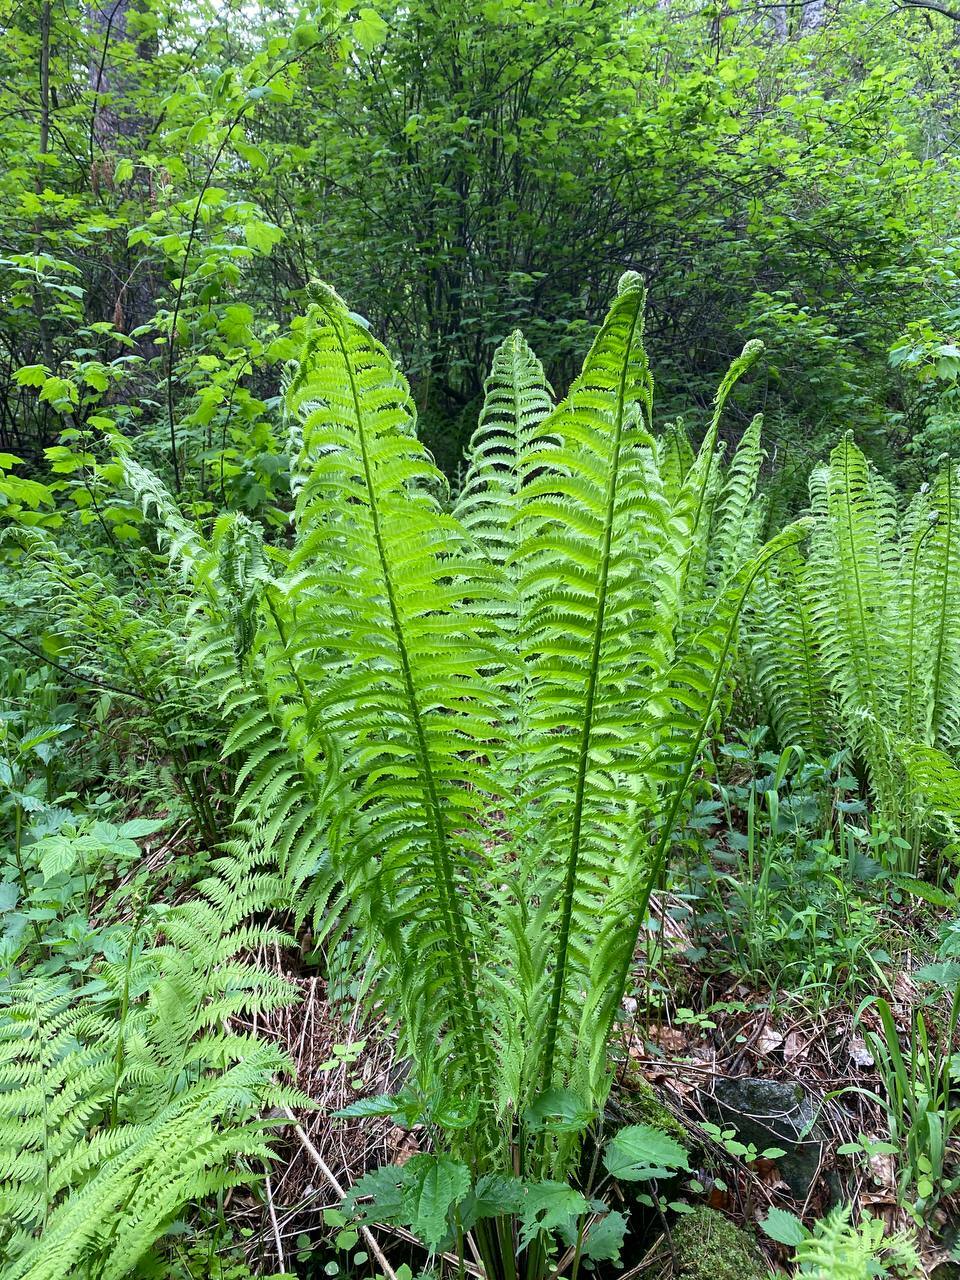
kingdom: Plantae
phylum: Tracheophyta
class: Polypodiopsida
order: Polypodiales
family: Onocleaceae
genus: Matteuccia
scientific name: Matteuccia struthiopteris
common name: Ostrich fern
